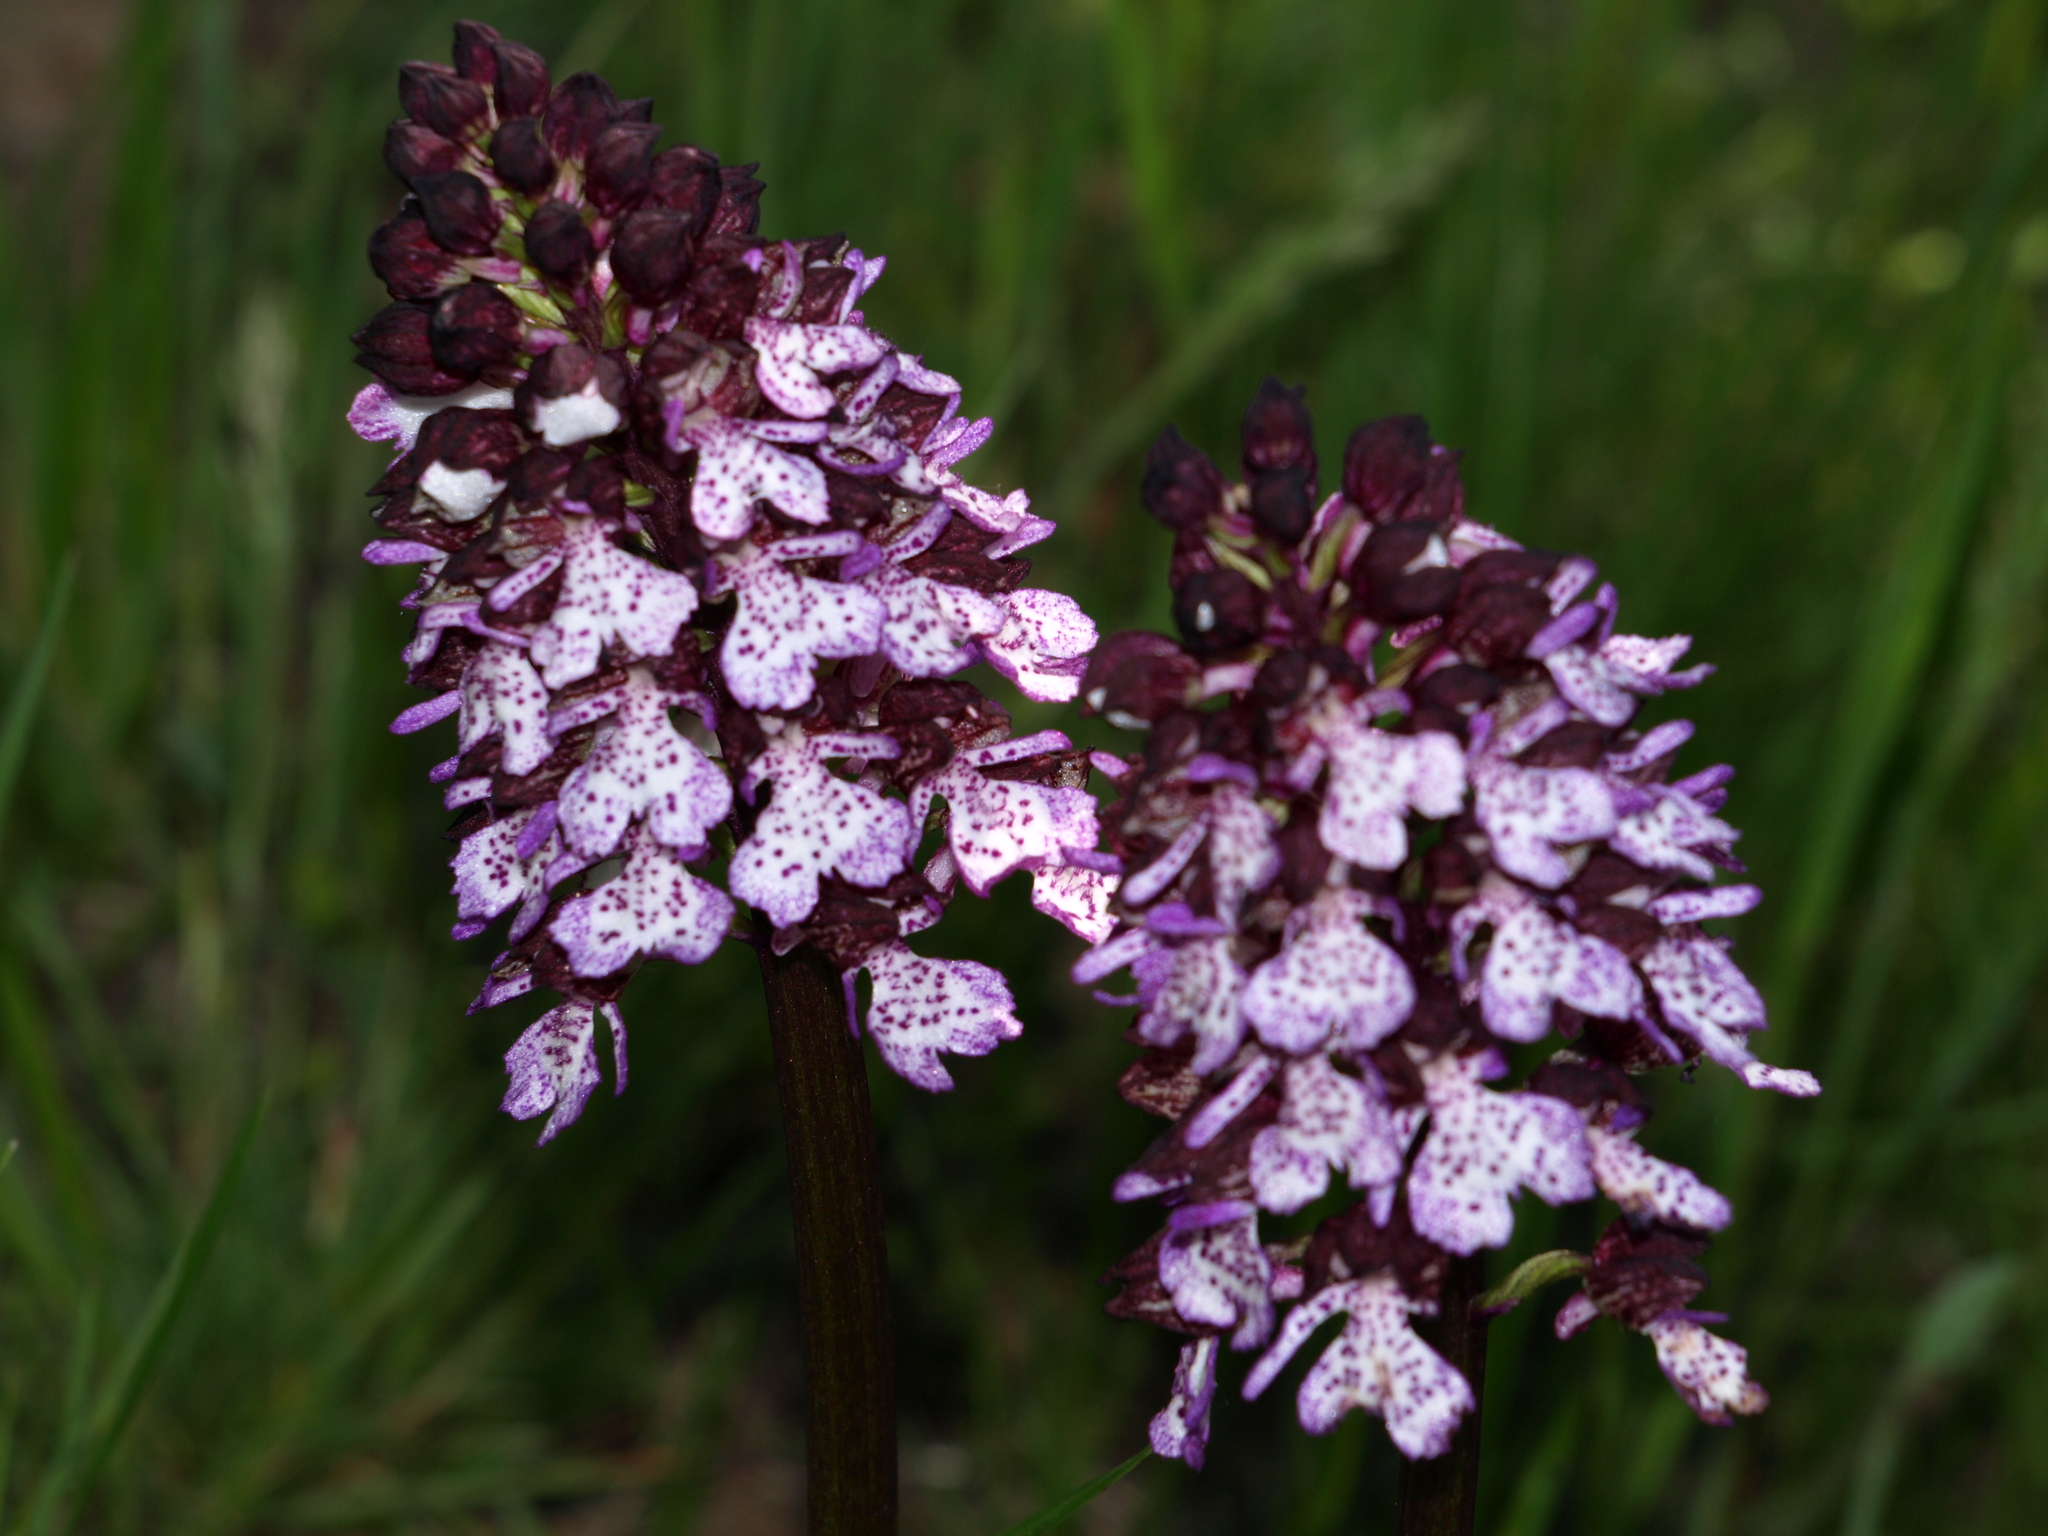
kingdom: Plantae
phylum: Tracheophyta
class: Liliopsida
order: Asparagales
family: Orchidaceae
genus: Orchis
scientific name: Orchis purpurea
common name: Lady orchid
